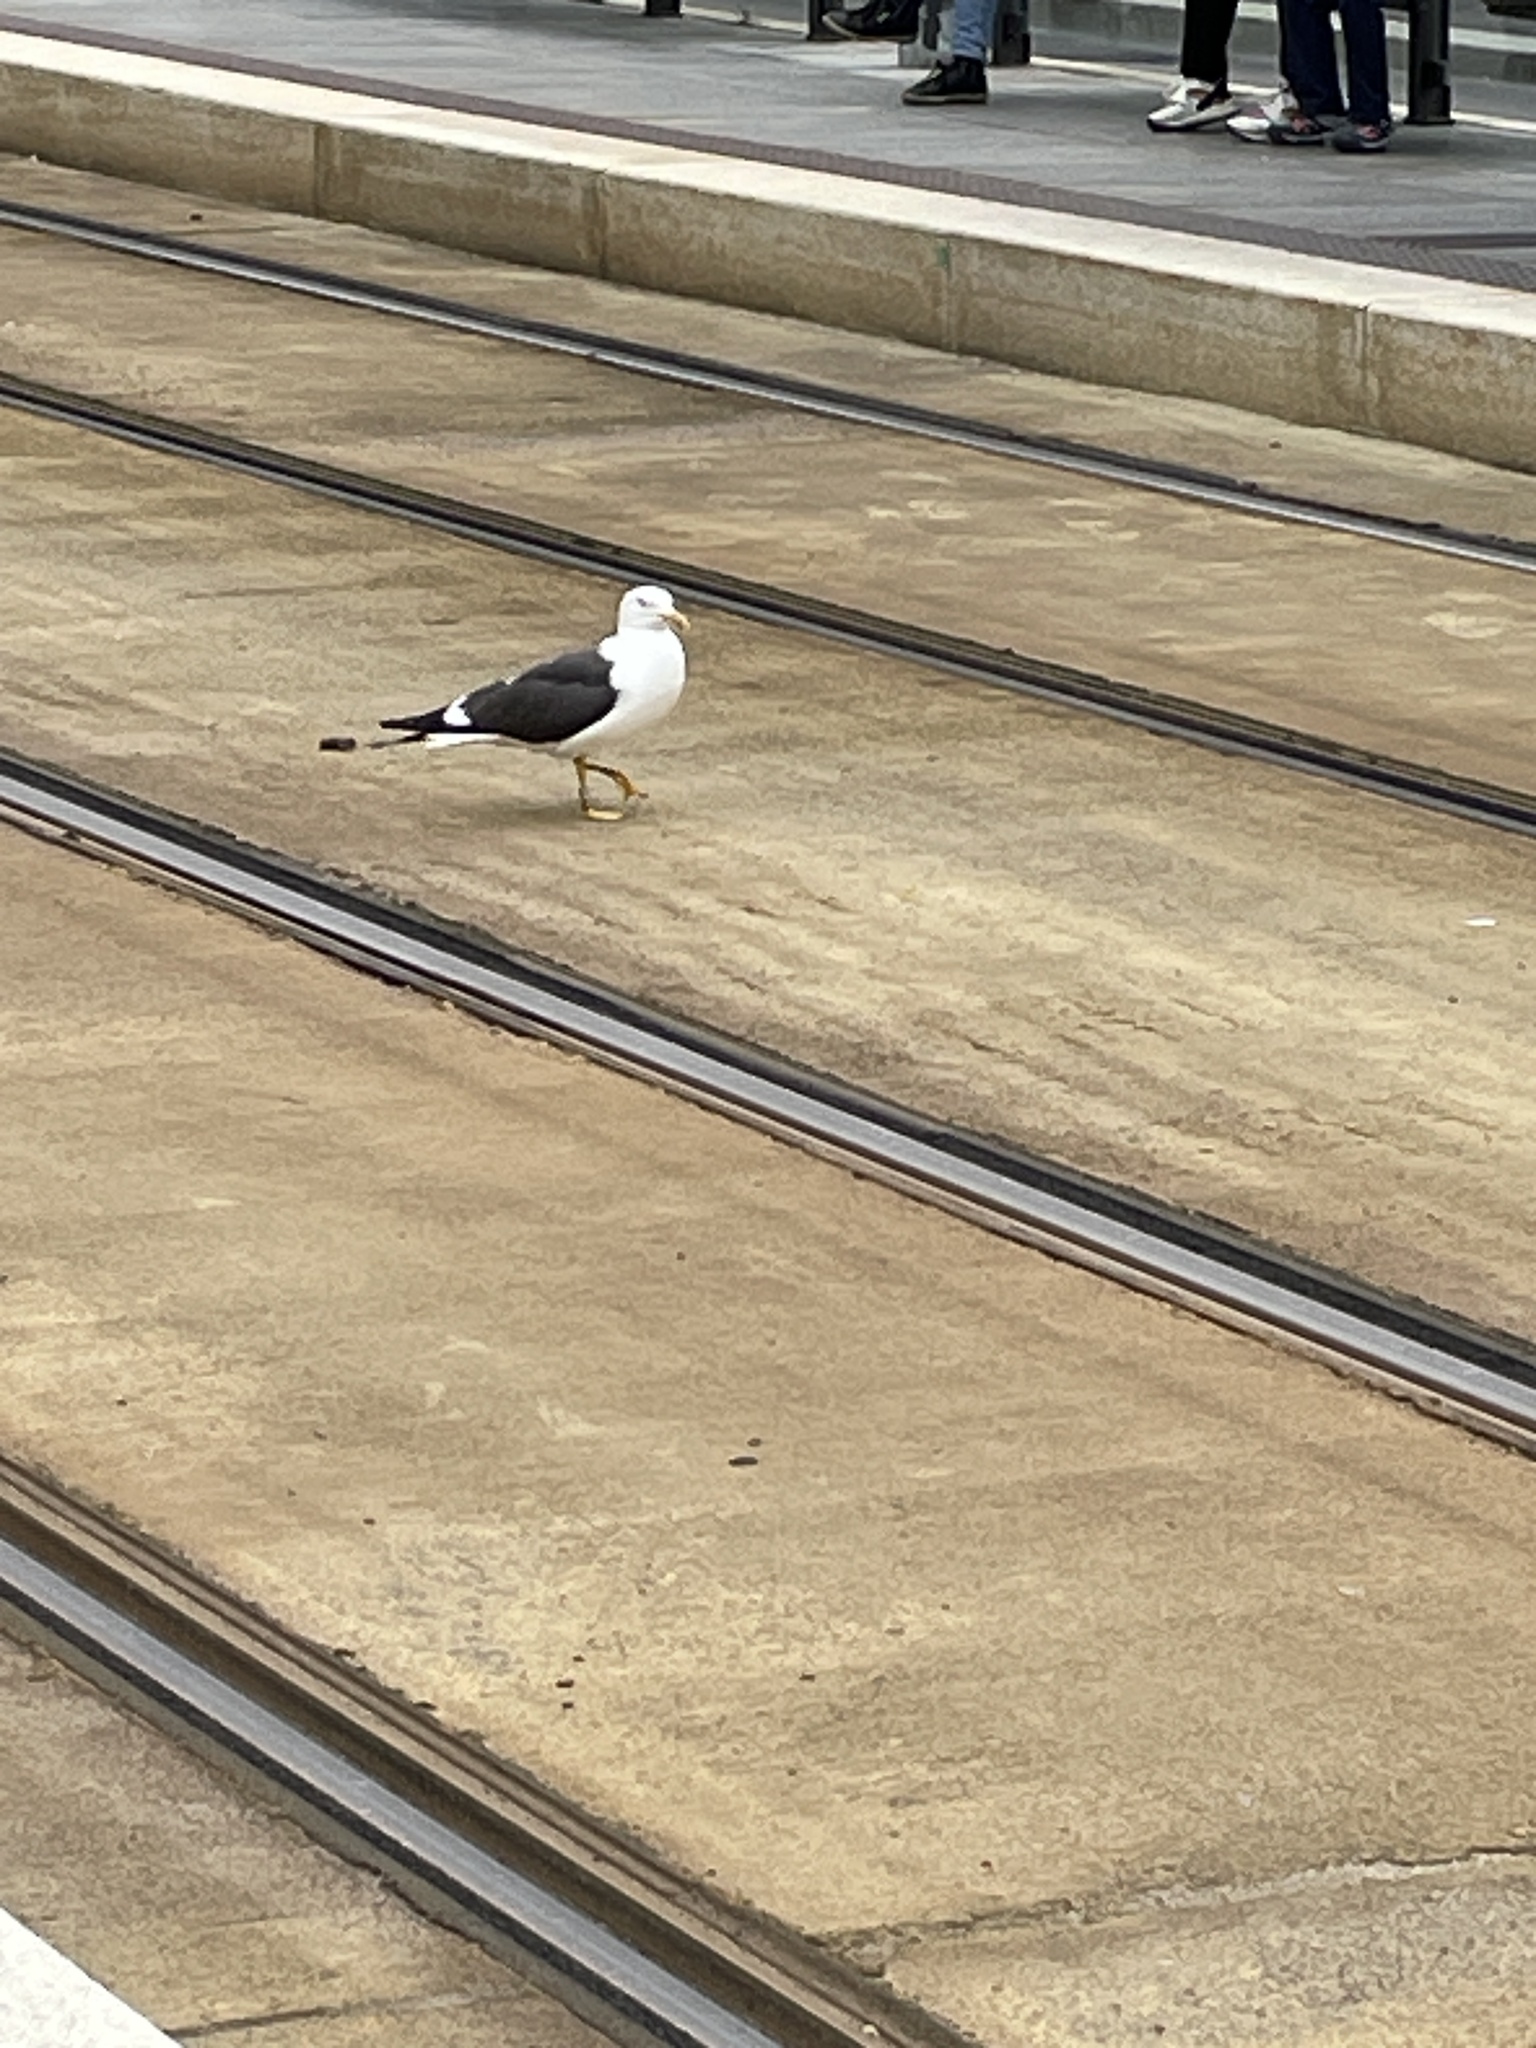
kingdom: Animalia
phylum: Chordata
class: Aves
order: Charadriiformes
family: Laridae
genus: Larus
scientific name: Larus fuscus
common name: Lesser black-backed gull
